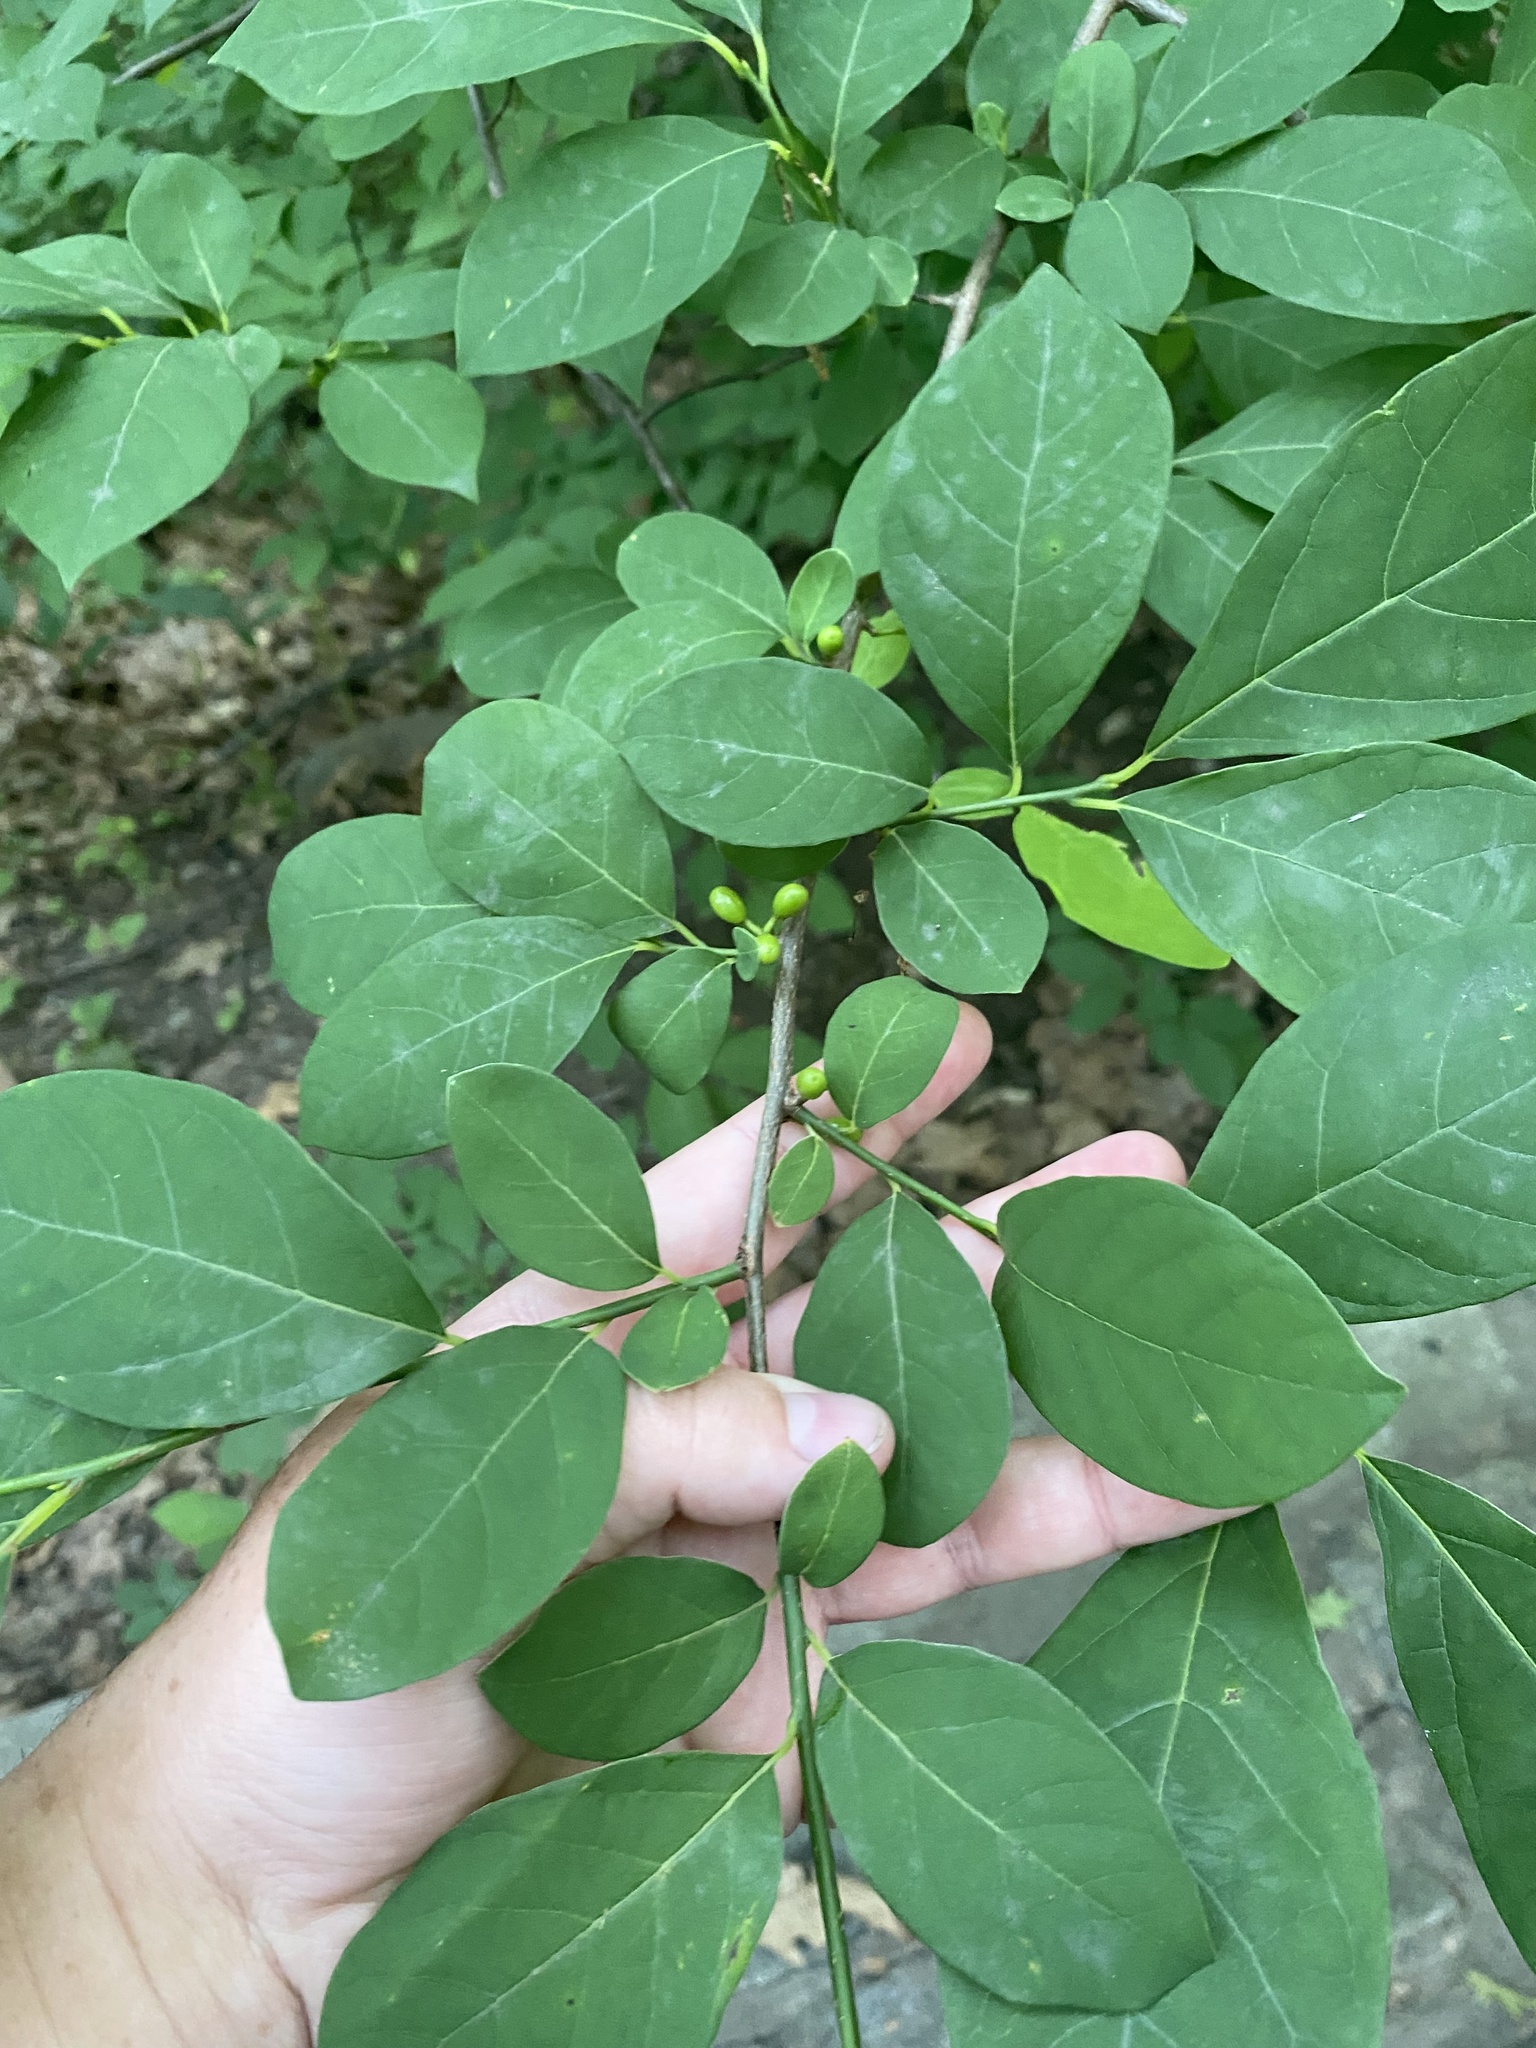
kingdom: Plantae
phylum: Tracheophyta
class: Magnoliopsida
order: Laurales
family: Lauraceae
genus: Lindera
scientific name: Lindera benzoin
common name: Spicebush
